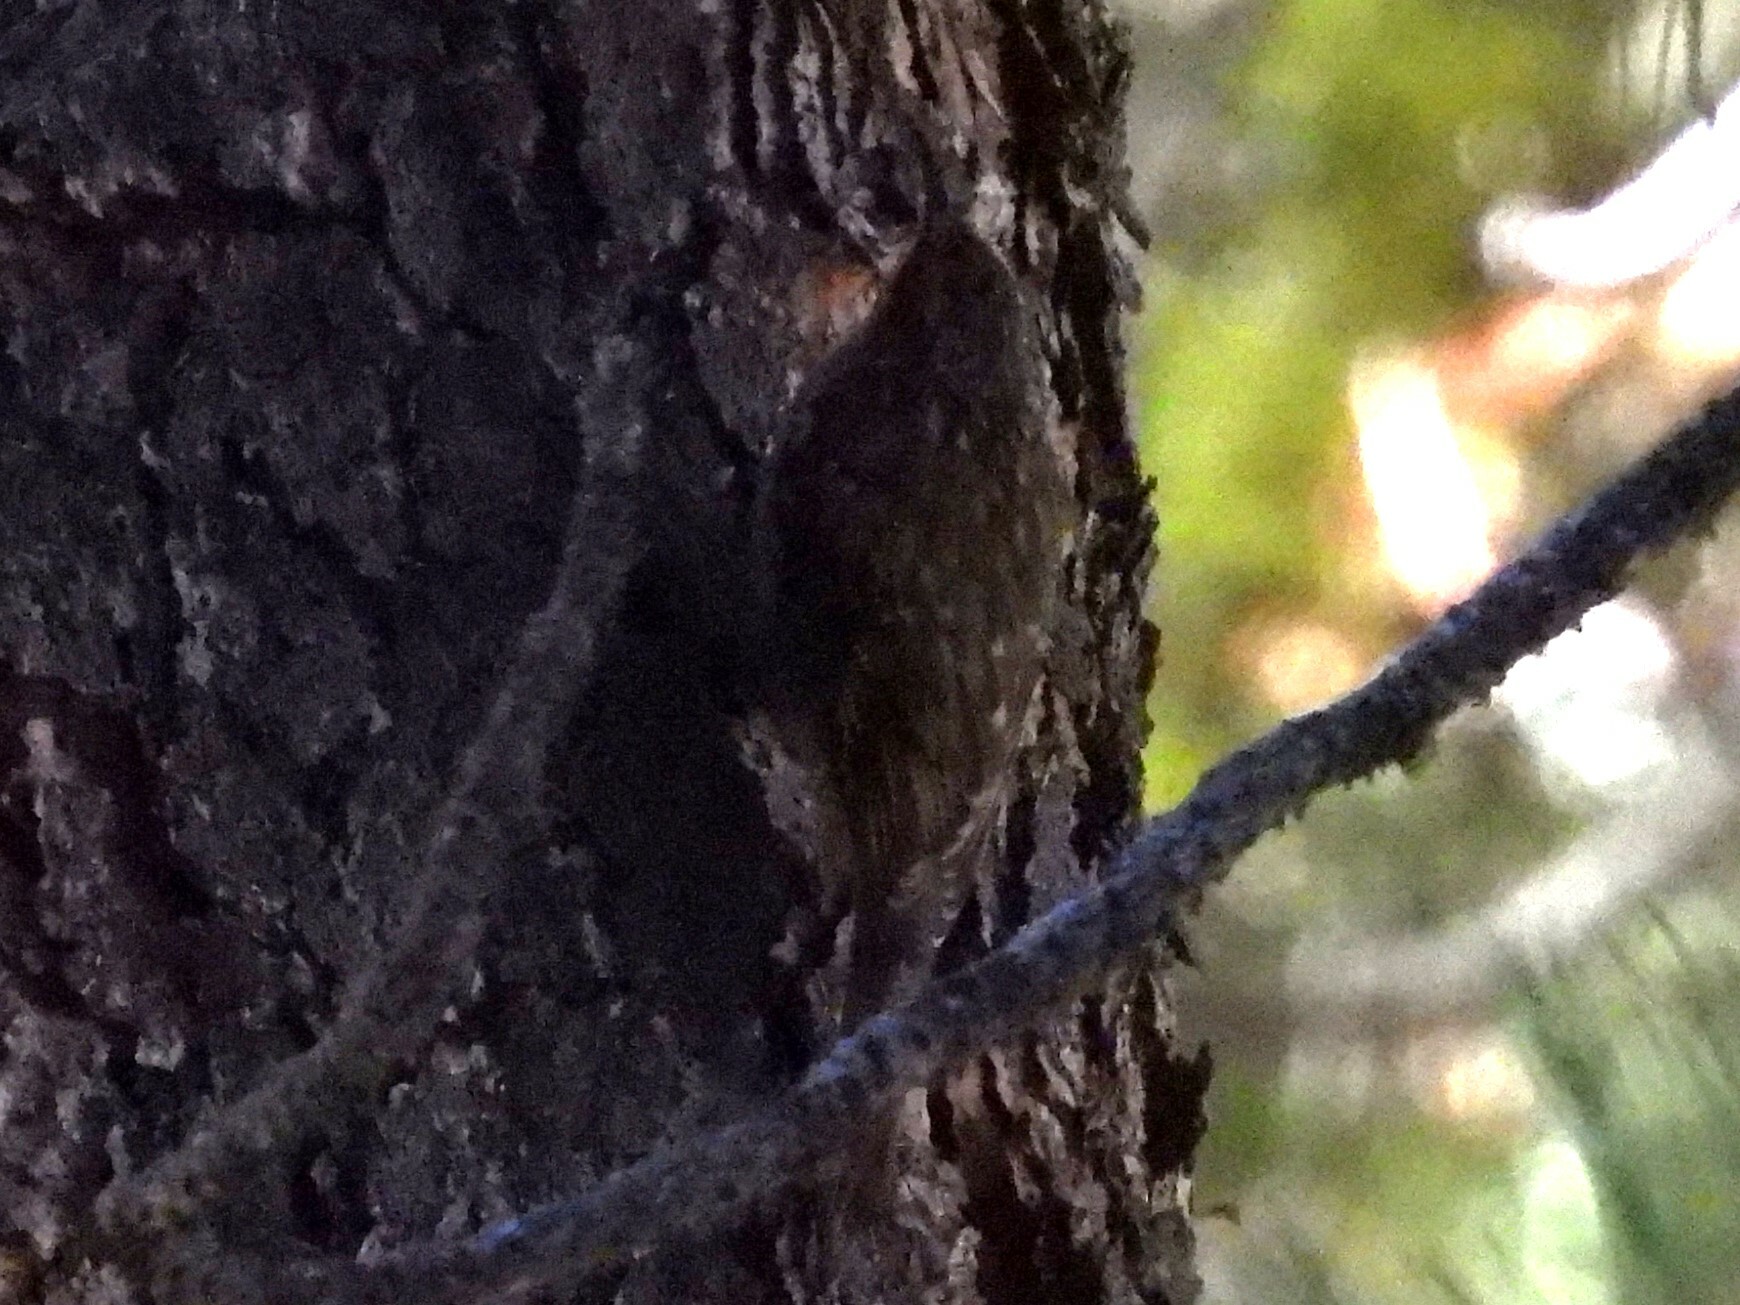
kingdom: Animalia
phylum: Chordata
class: Aves
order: Passeriformes
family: Certhiidae
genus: Certhia
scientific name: Certhia americana
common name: Brown creeper
